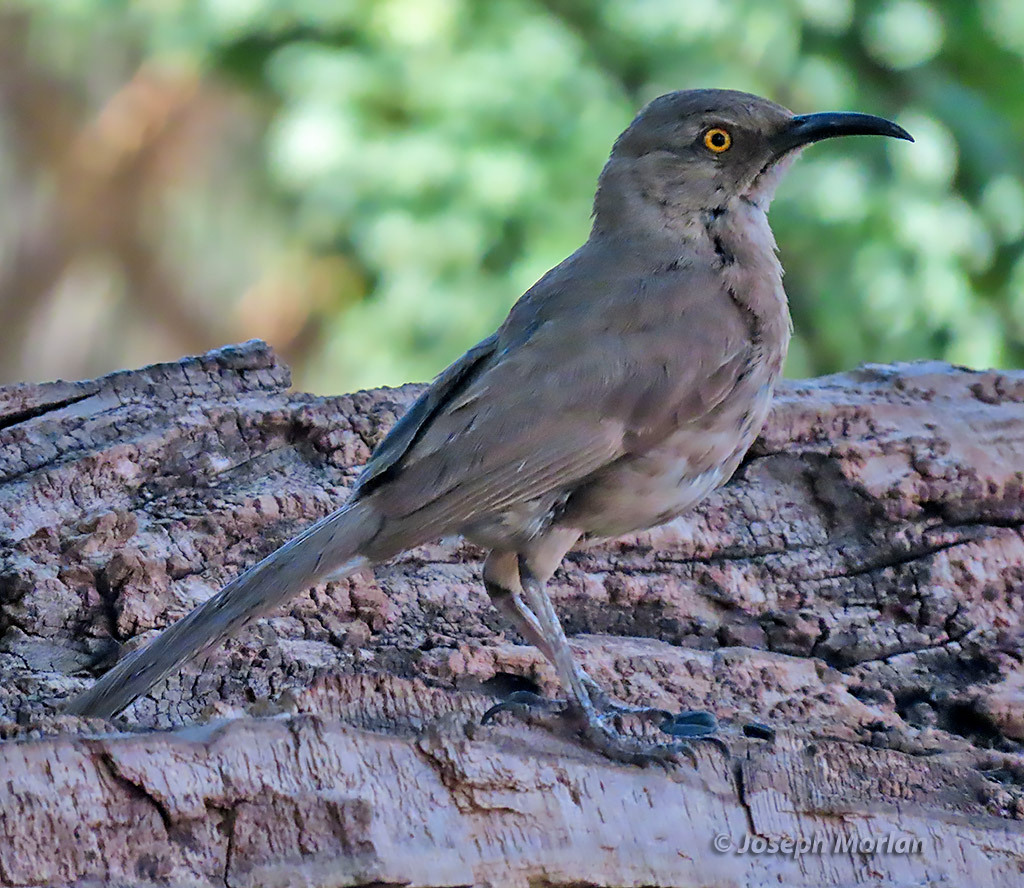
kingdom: Animalia
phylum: Chordata
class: Aves
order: Passeriformes
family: Mimidae
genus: Toxostoma
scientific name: Toxostoma curvirostre
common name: Curve-billed thrasher
